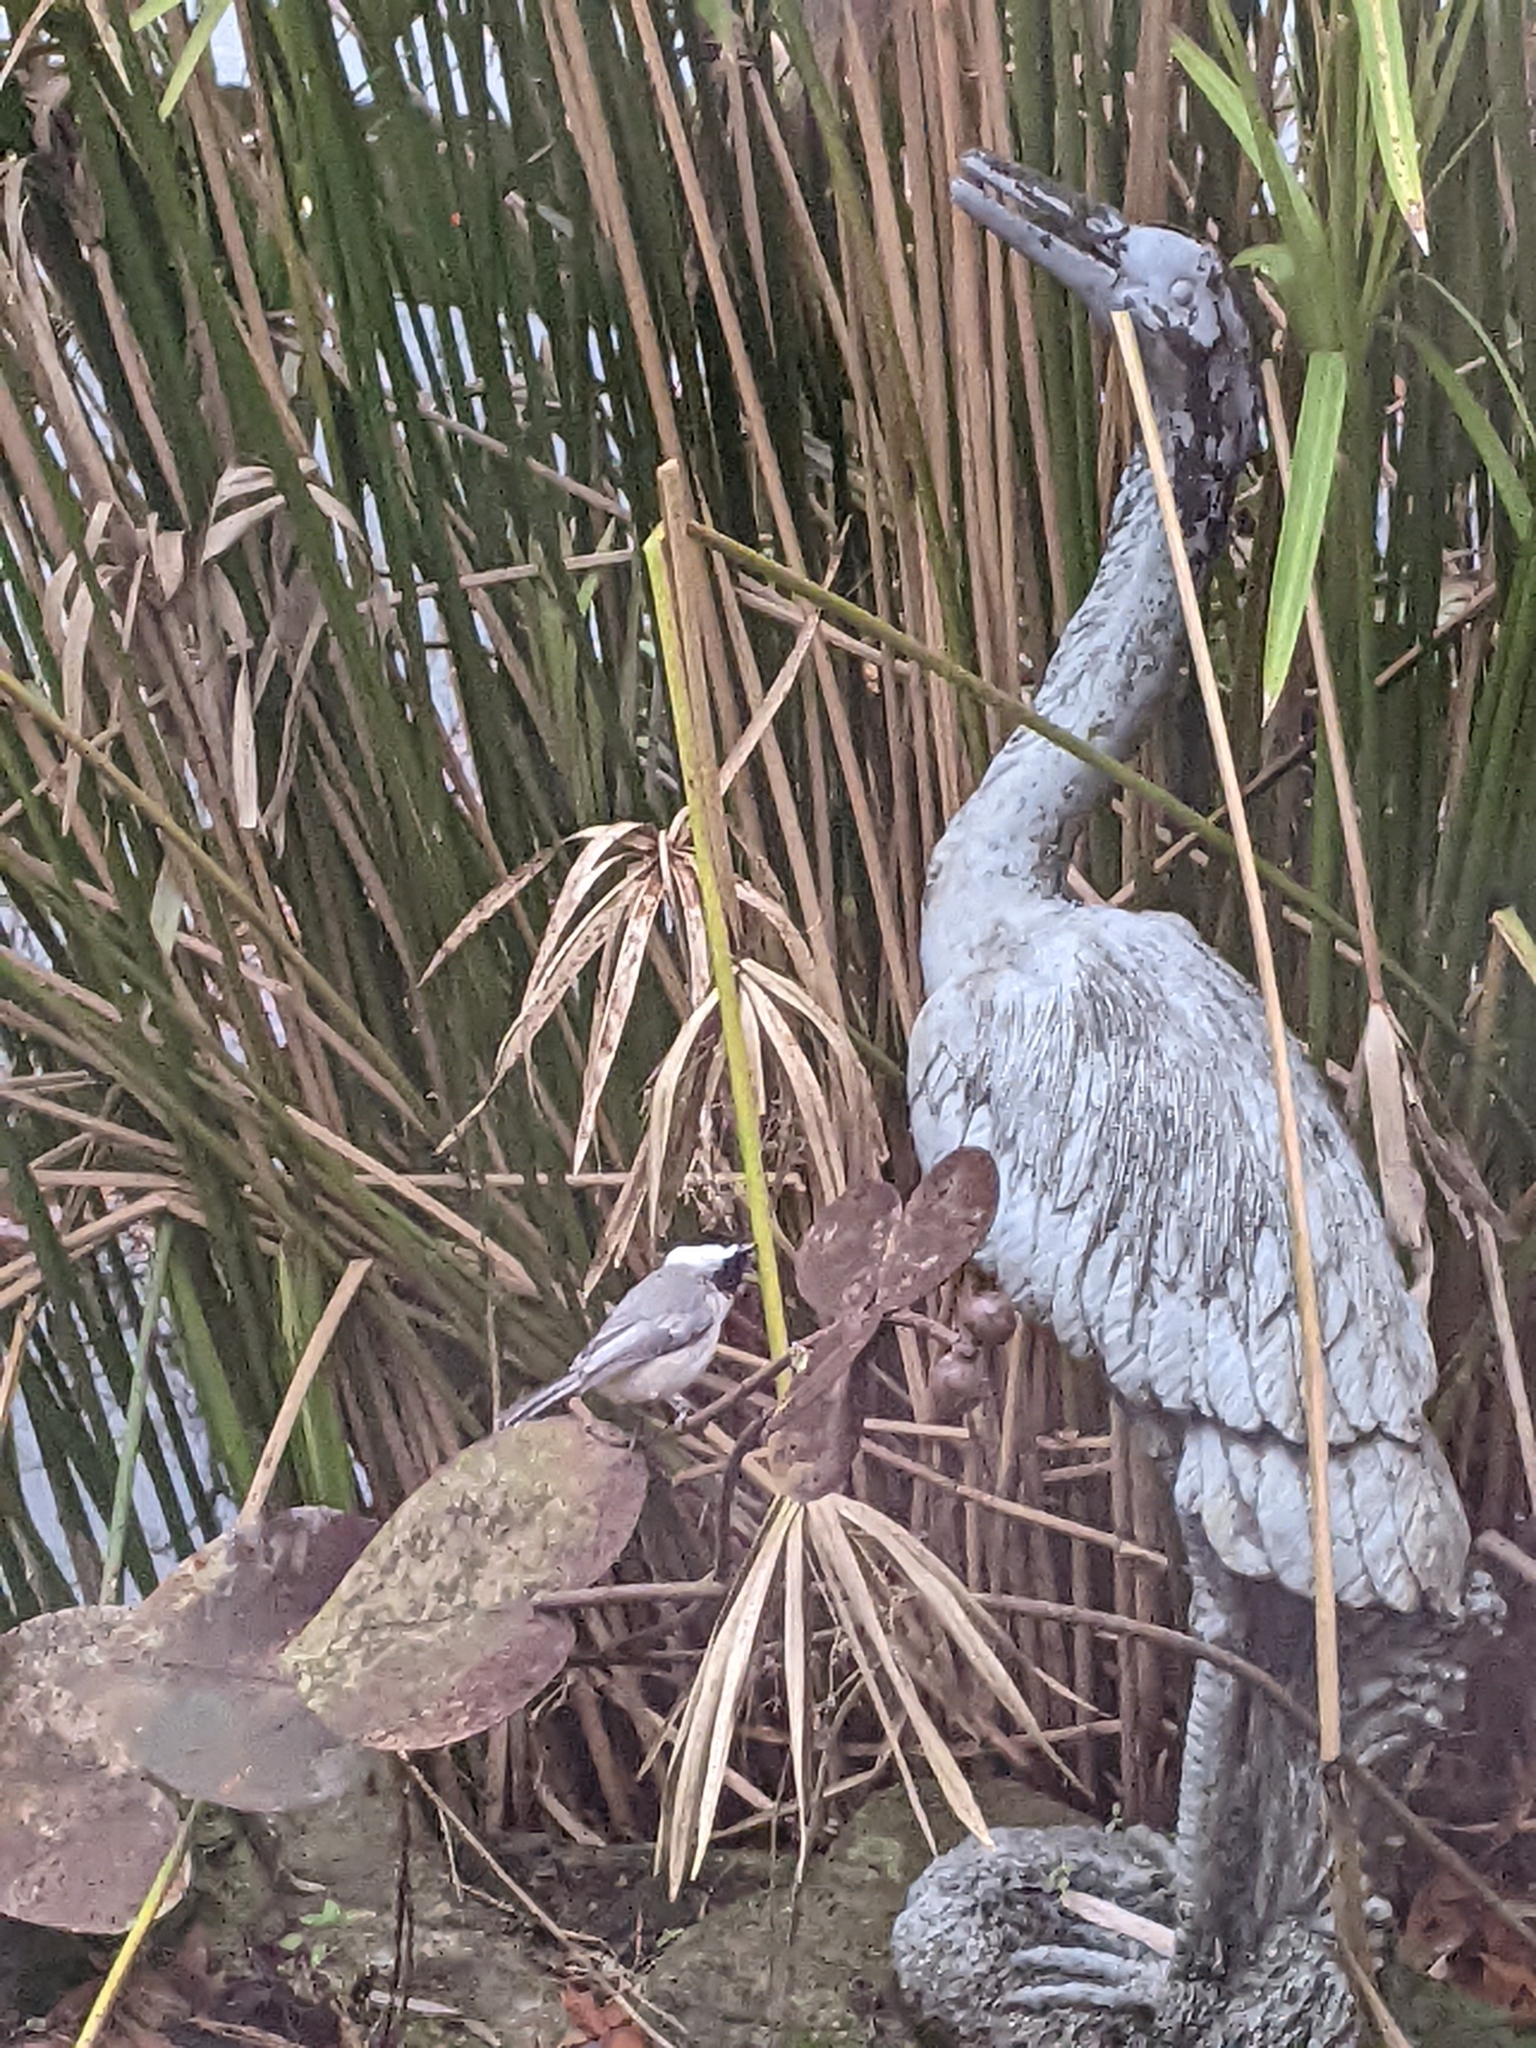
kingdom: Animalia
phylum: Chordata
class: Aves
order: Passeriformes
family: Paridae
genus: Poecile
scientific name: Poecile carolinensis
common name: Carolina chickadee
